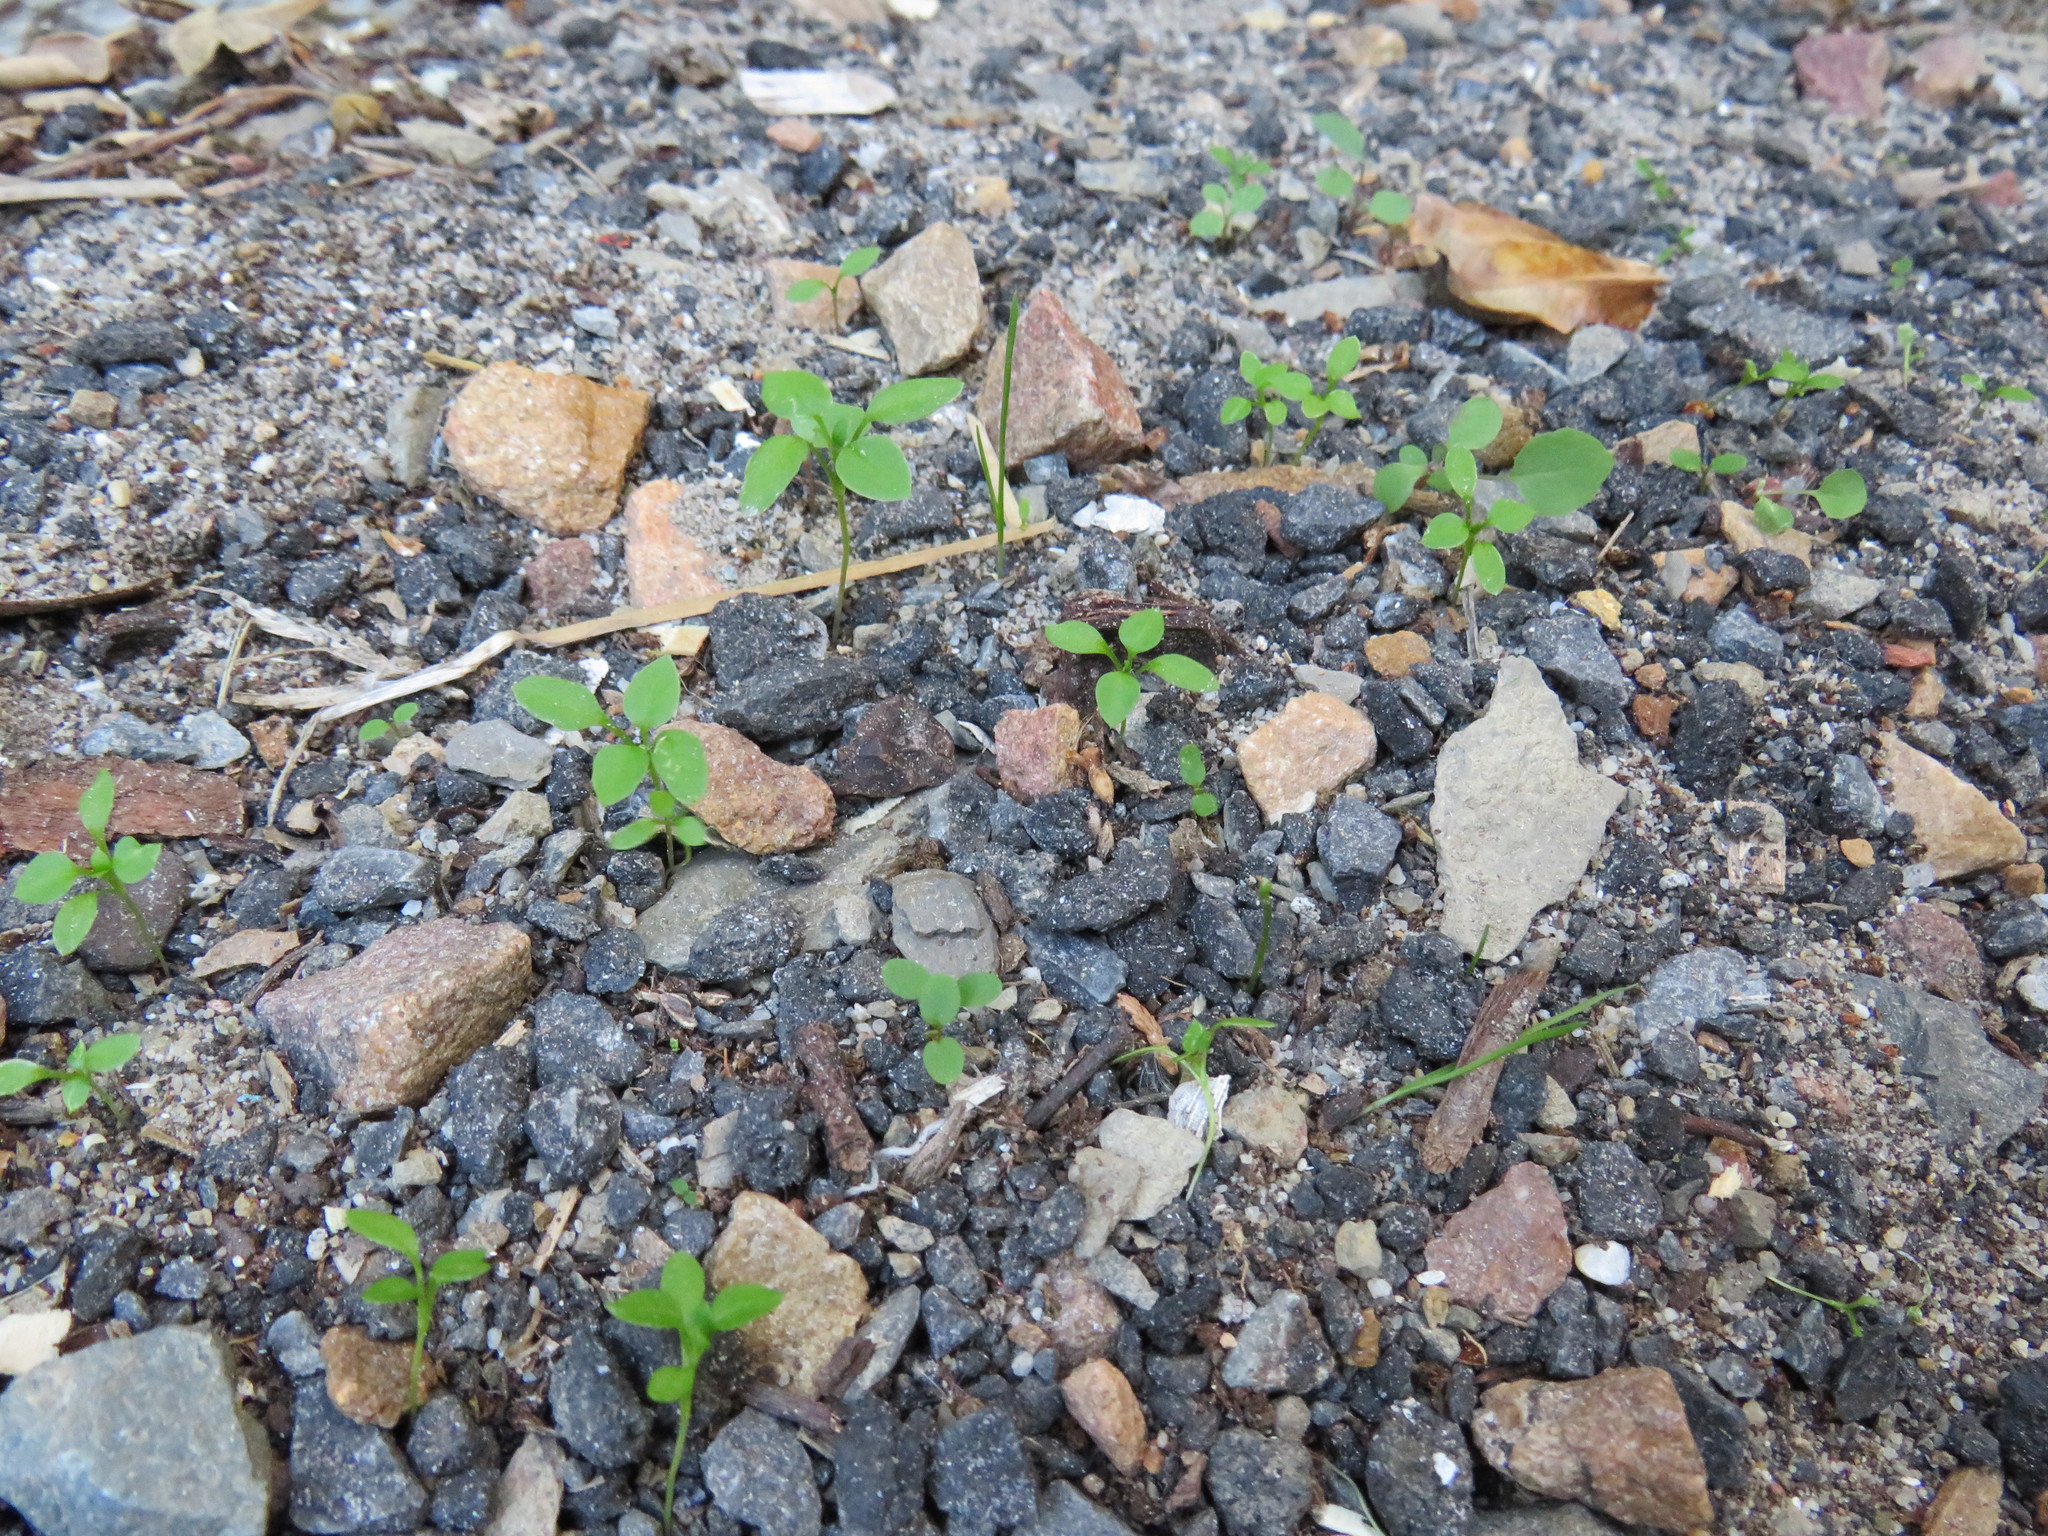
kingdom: Plantae
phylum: Tracheophyta
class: Magnoliopsida
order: Caryophyllales
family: Caryophyllaceae
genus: Stellaria
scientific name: Stellaria media
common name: Common chickweed
